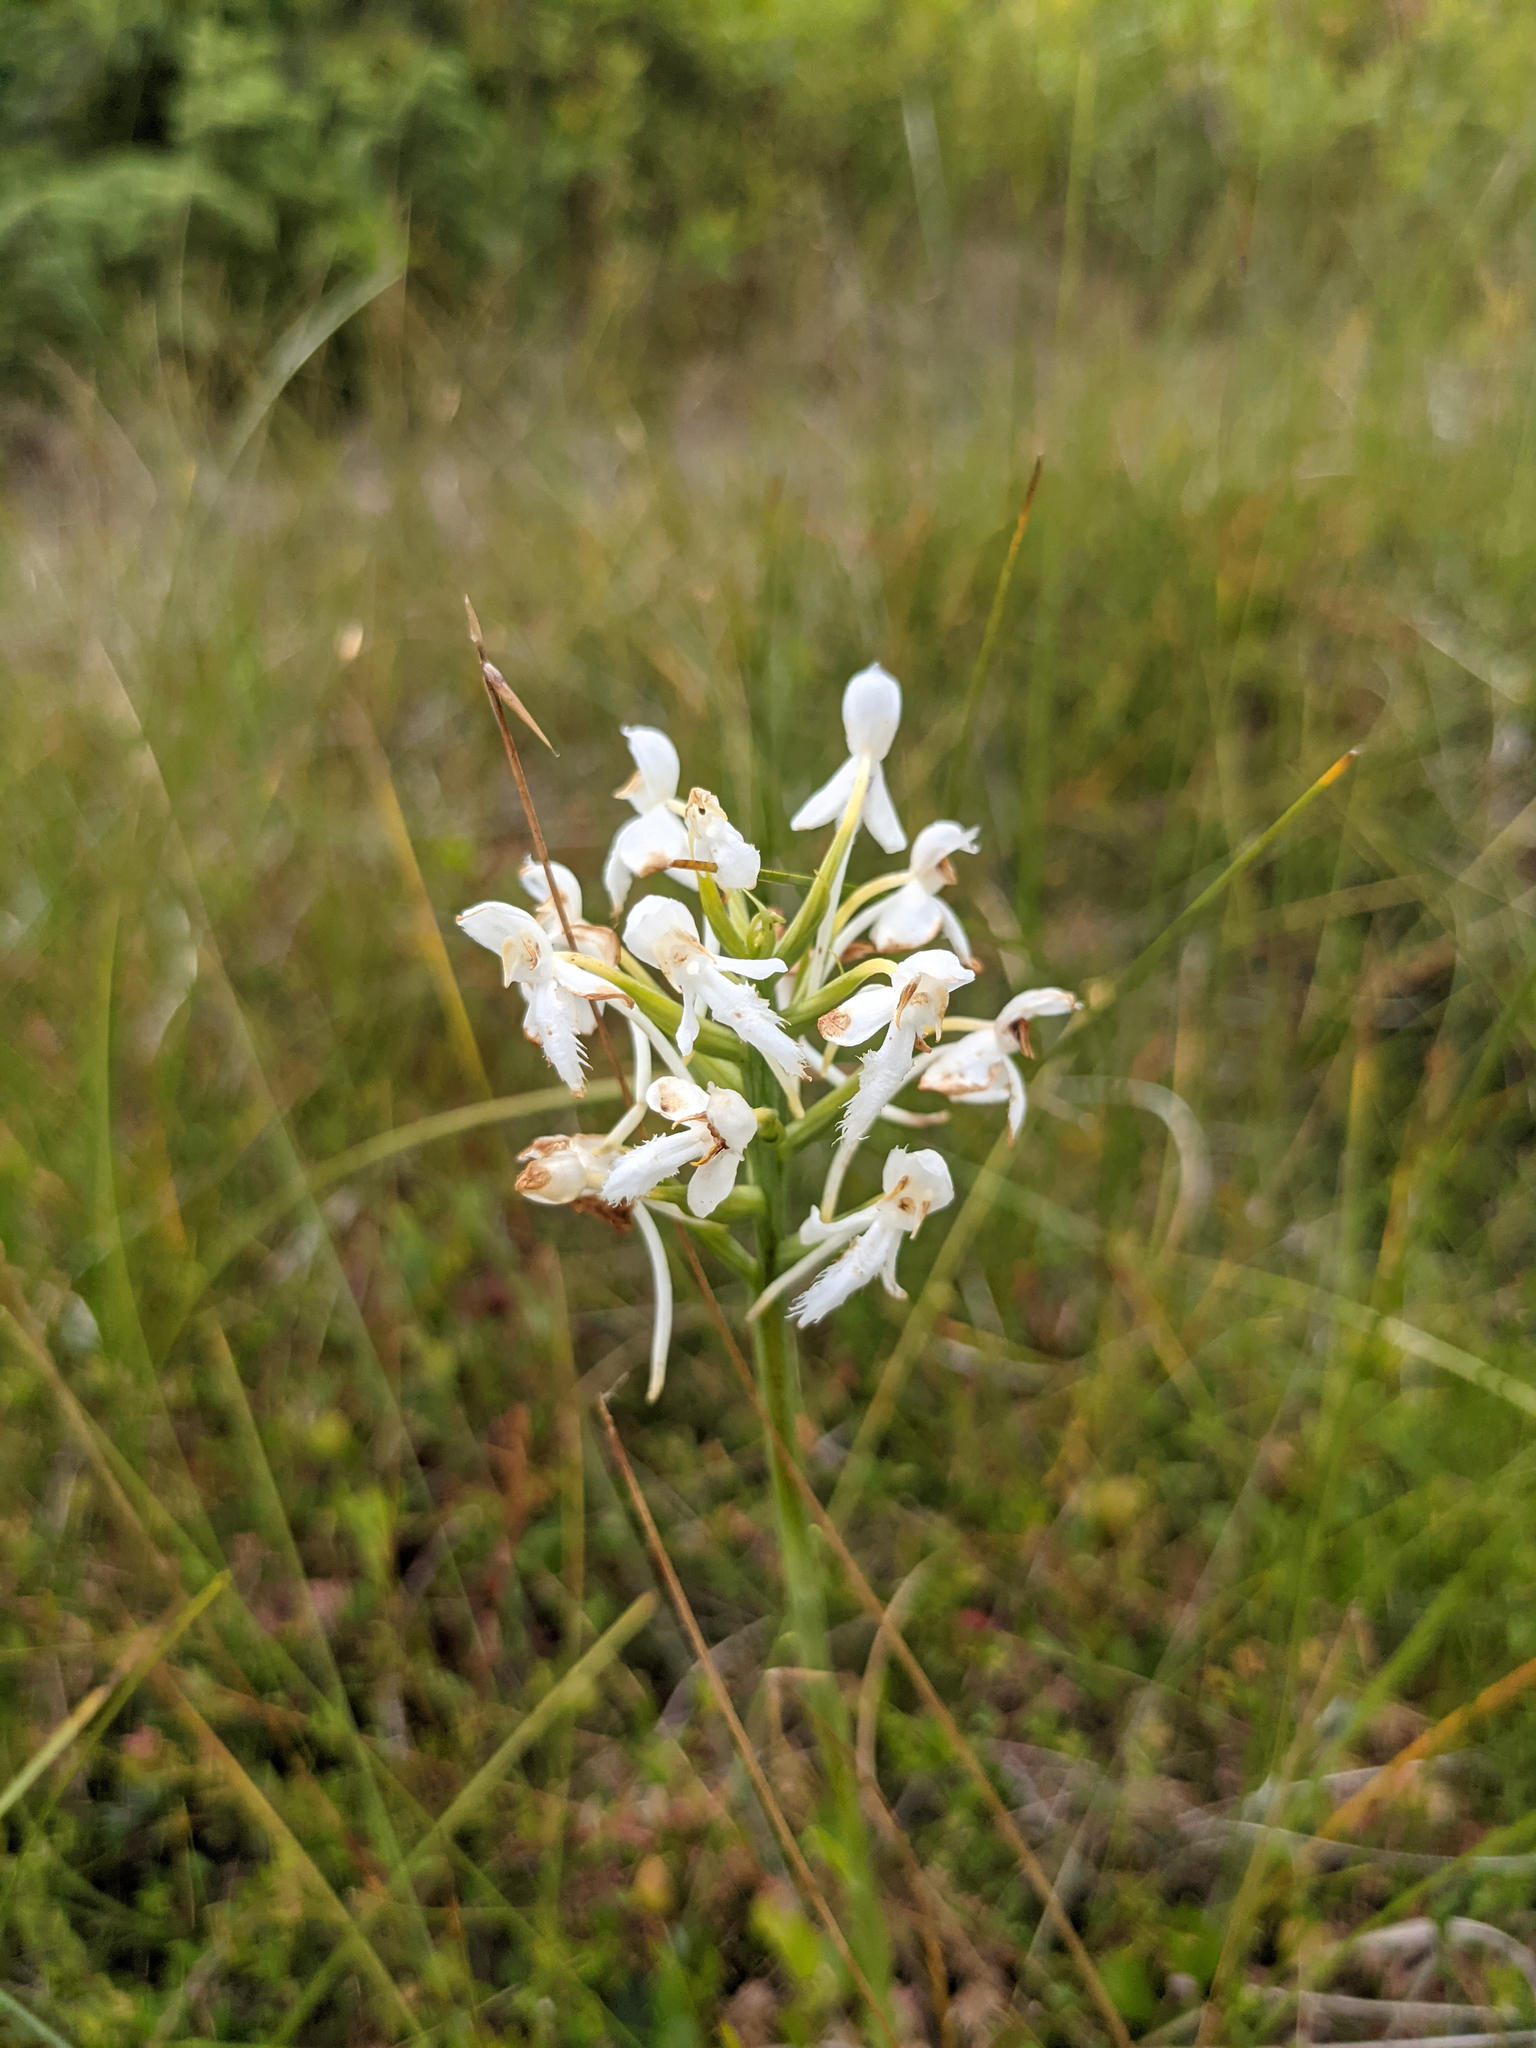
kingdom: Plantae
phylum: Tracheophyta
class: Liliopsida
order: Asparagales
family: Orchidaceae
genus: Platanthera
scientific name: Platanthera blephariglottis
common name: White fringed orchid
